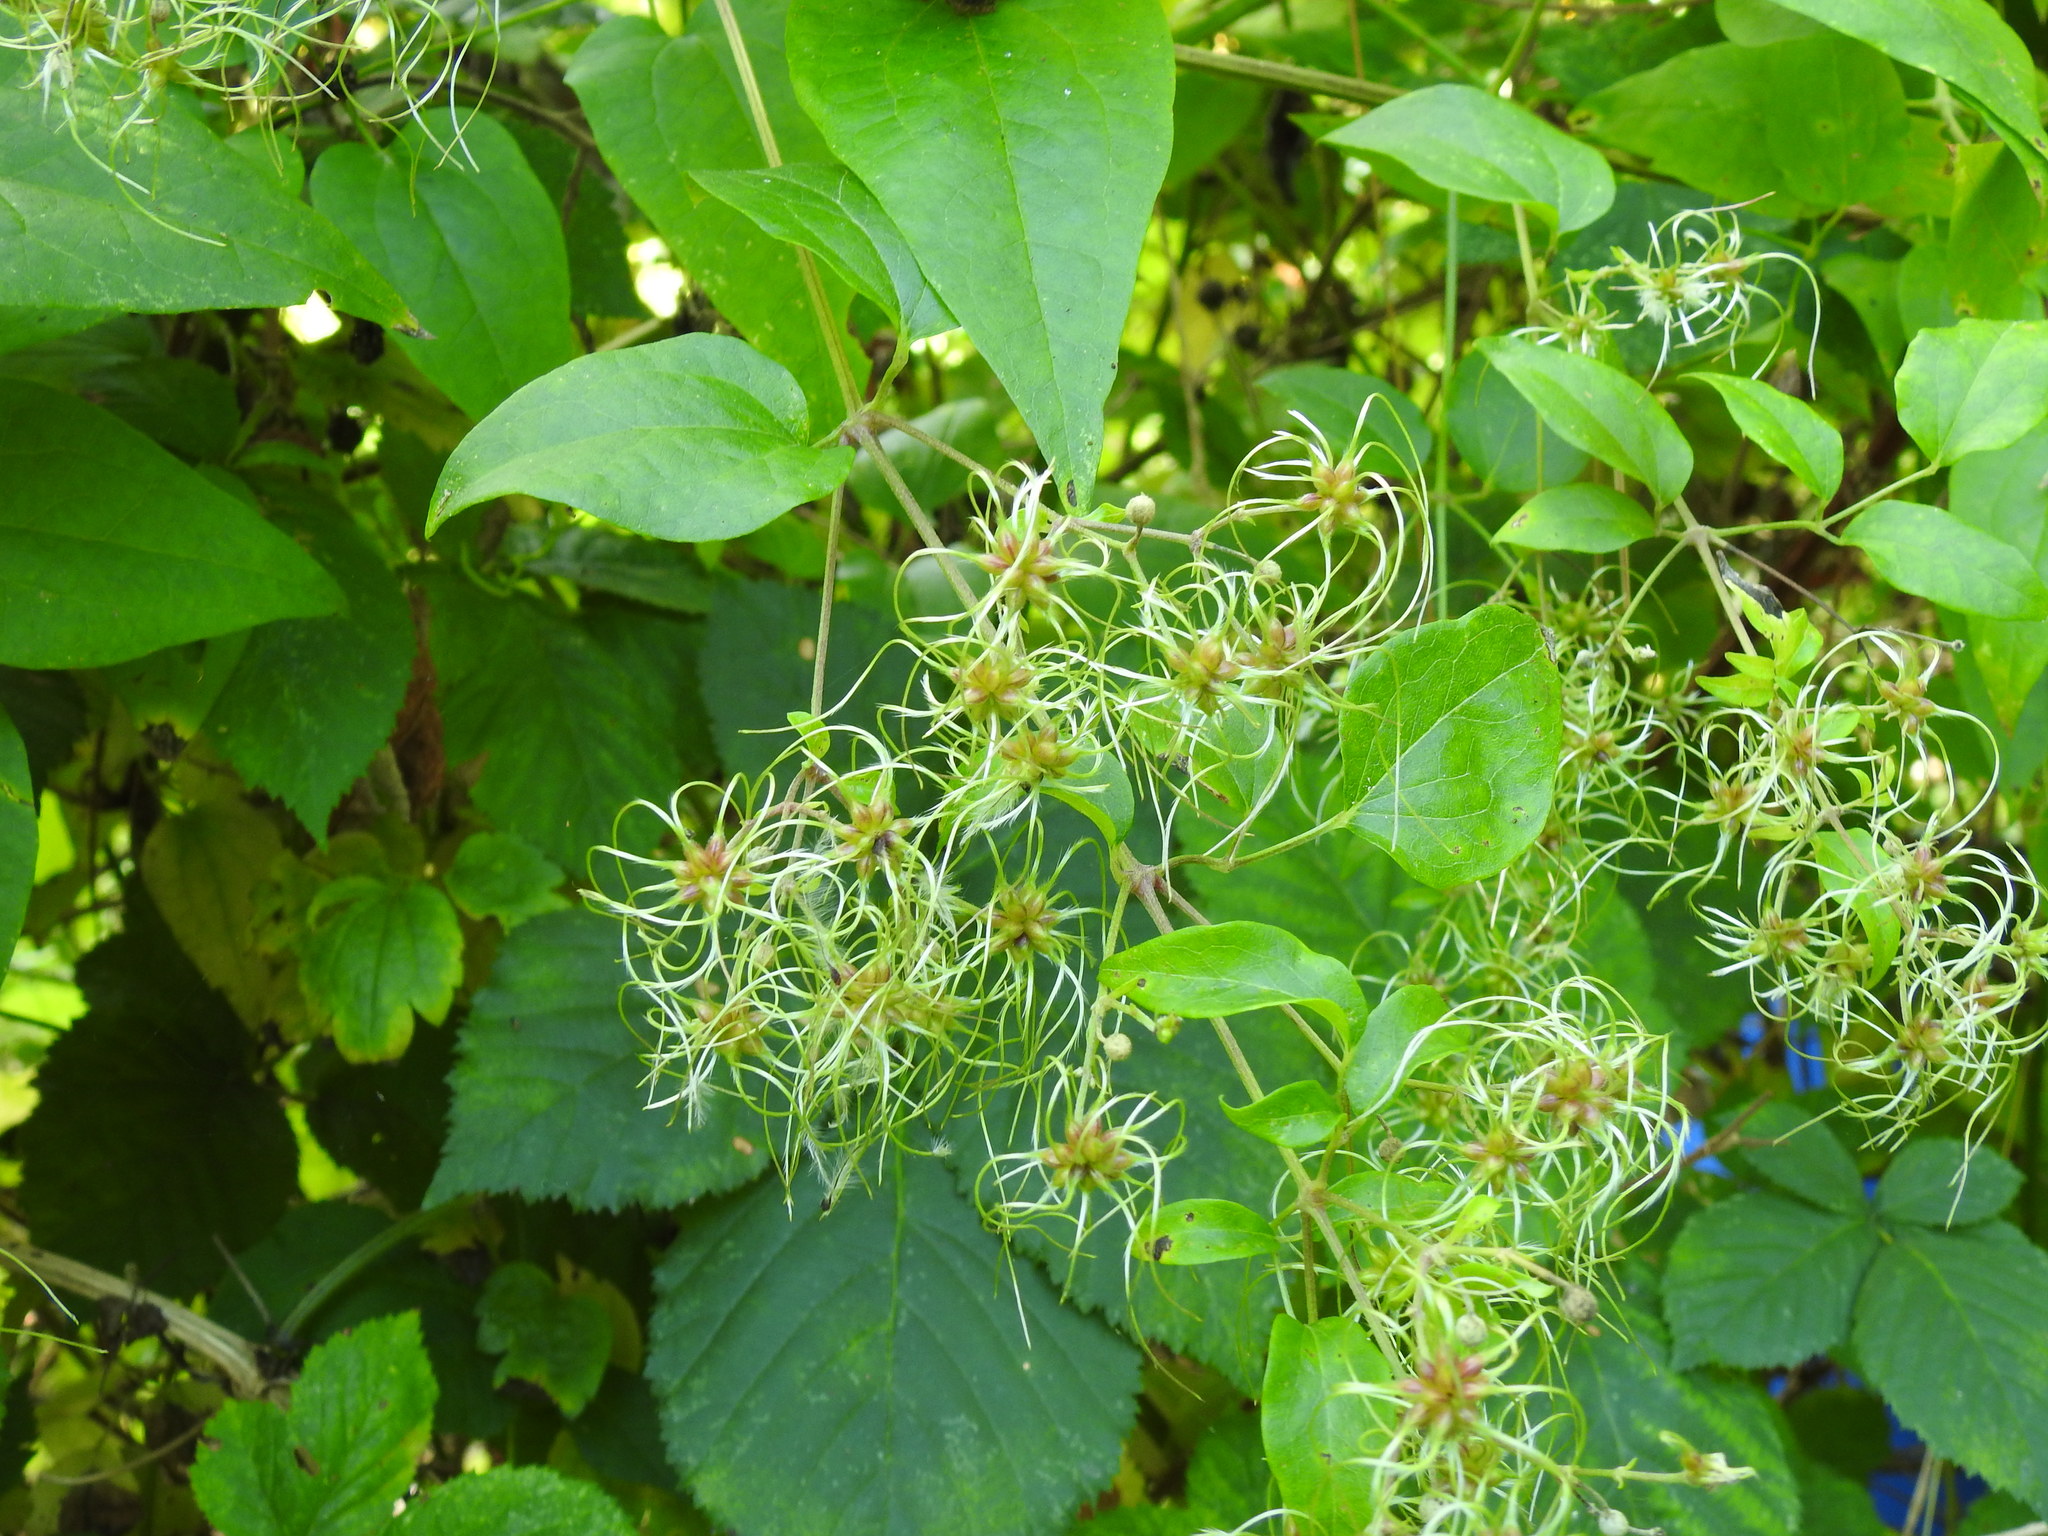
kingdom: Plantae
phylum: Tracheophyta
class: Magnoliopsida
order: Ranunculales
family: Ranunculaceae
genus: Clematis
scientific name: Clematis vitalba
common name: Evergreen clematis
